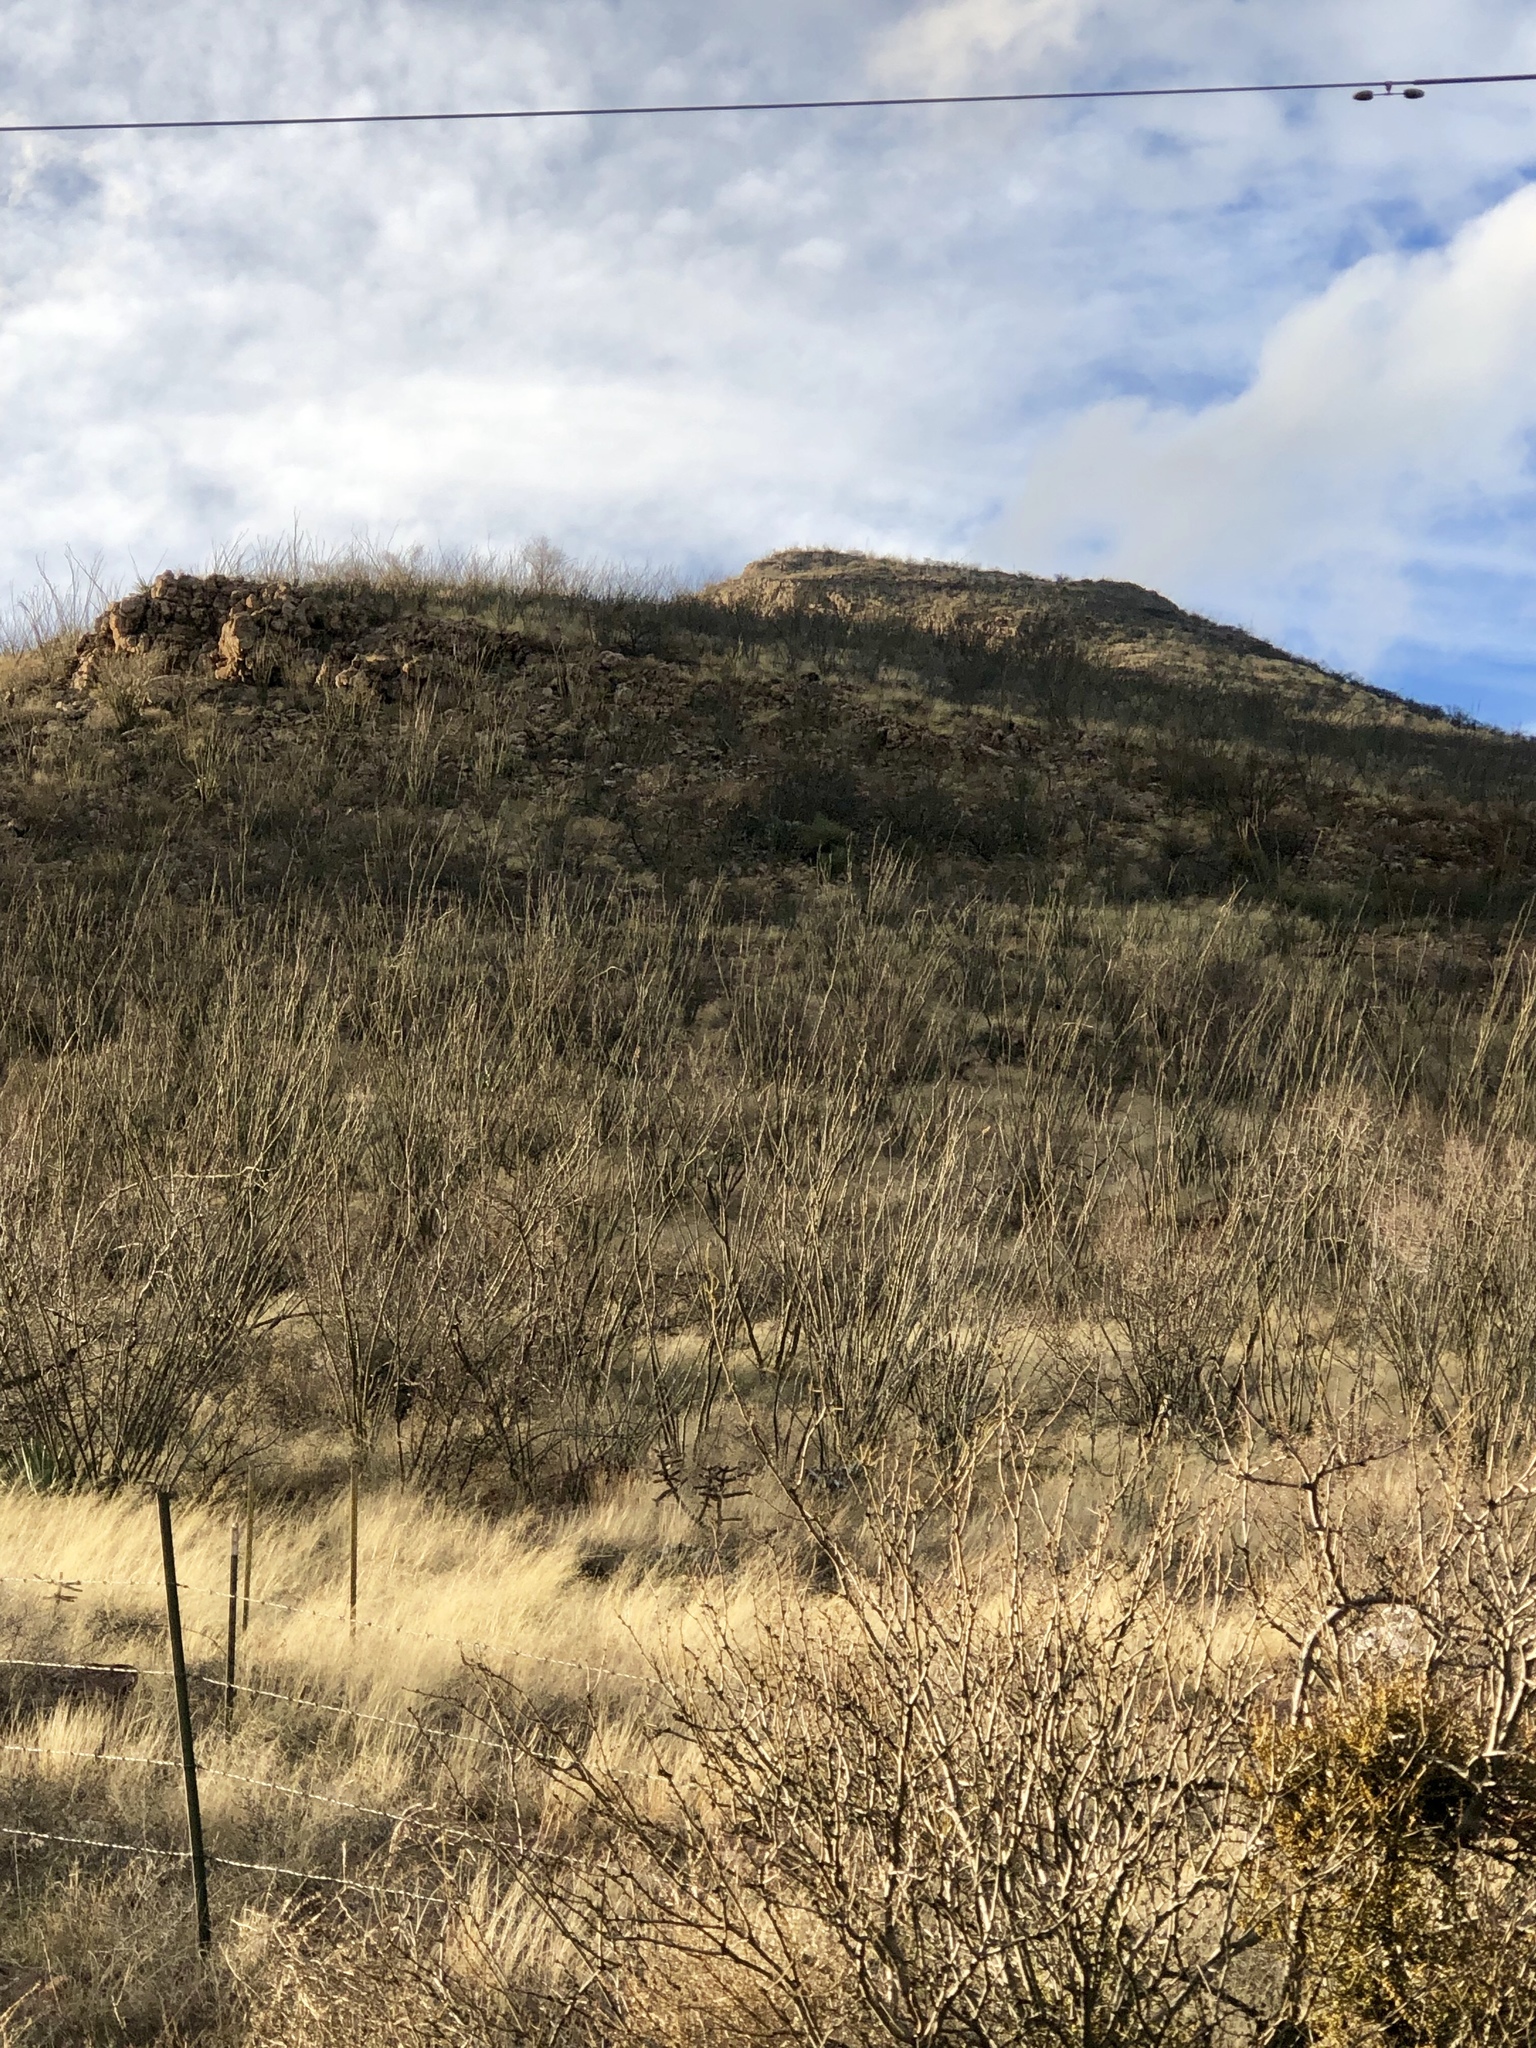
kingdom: Plantae
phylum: Tracheophyta
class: Magnoliopsida
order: Ericales
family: Fouquieriaceae
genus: Fouquieria
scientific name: Fouquieria splendens
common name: Vine-cactus
